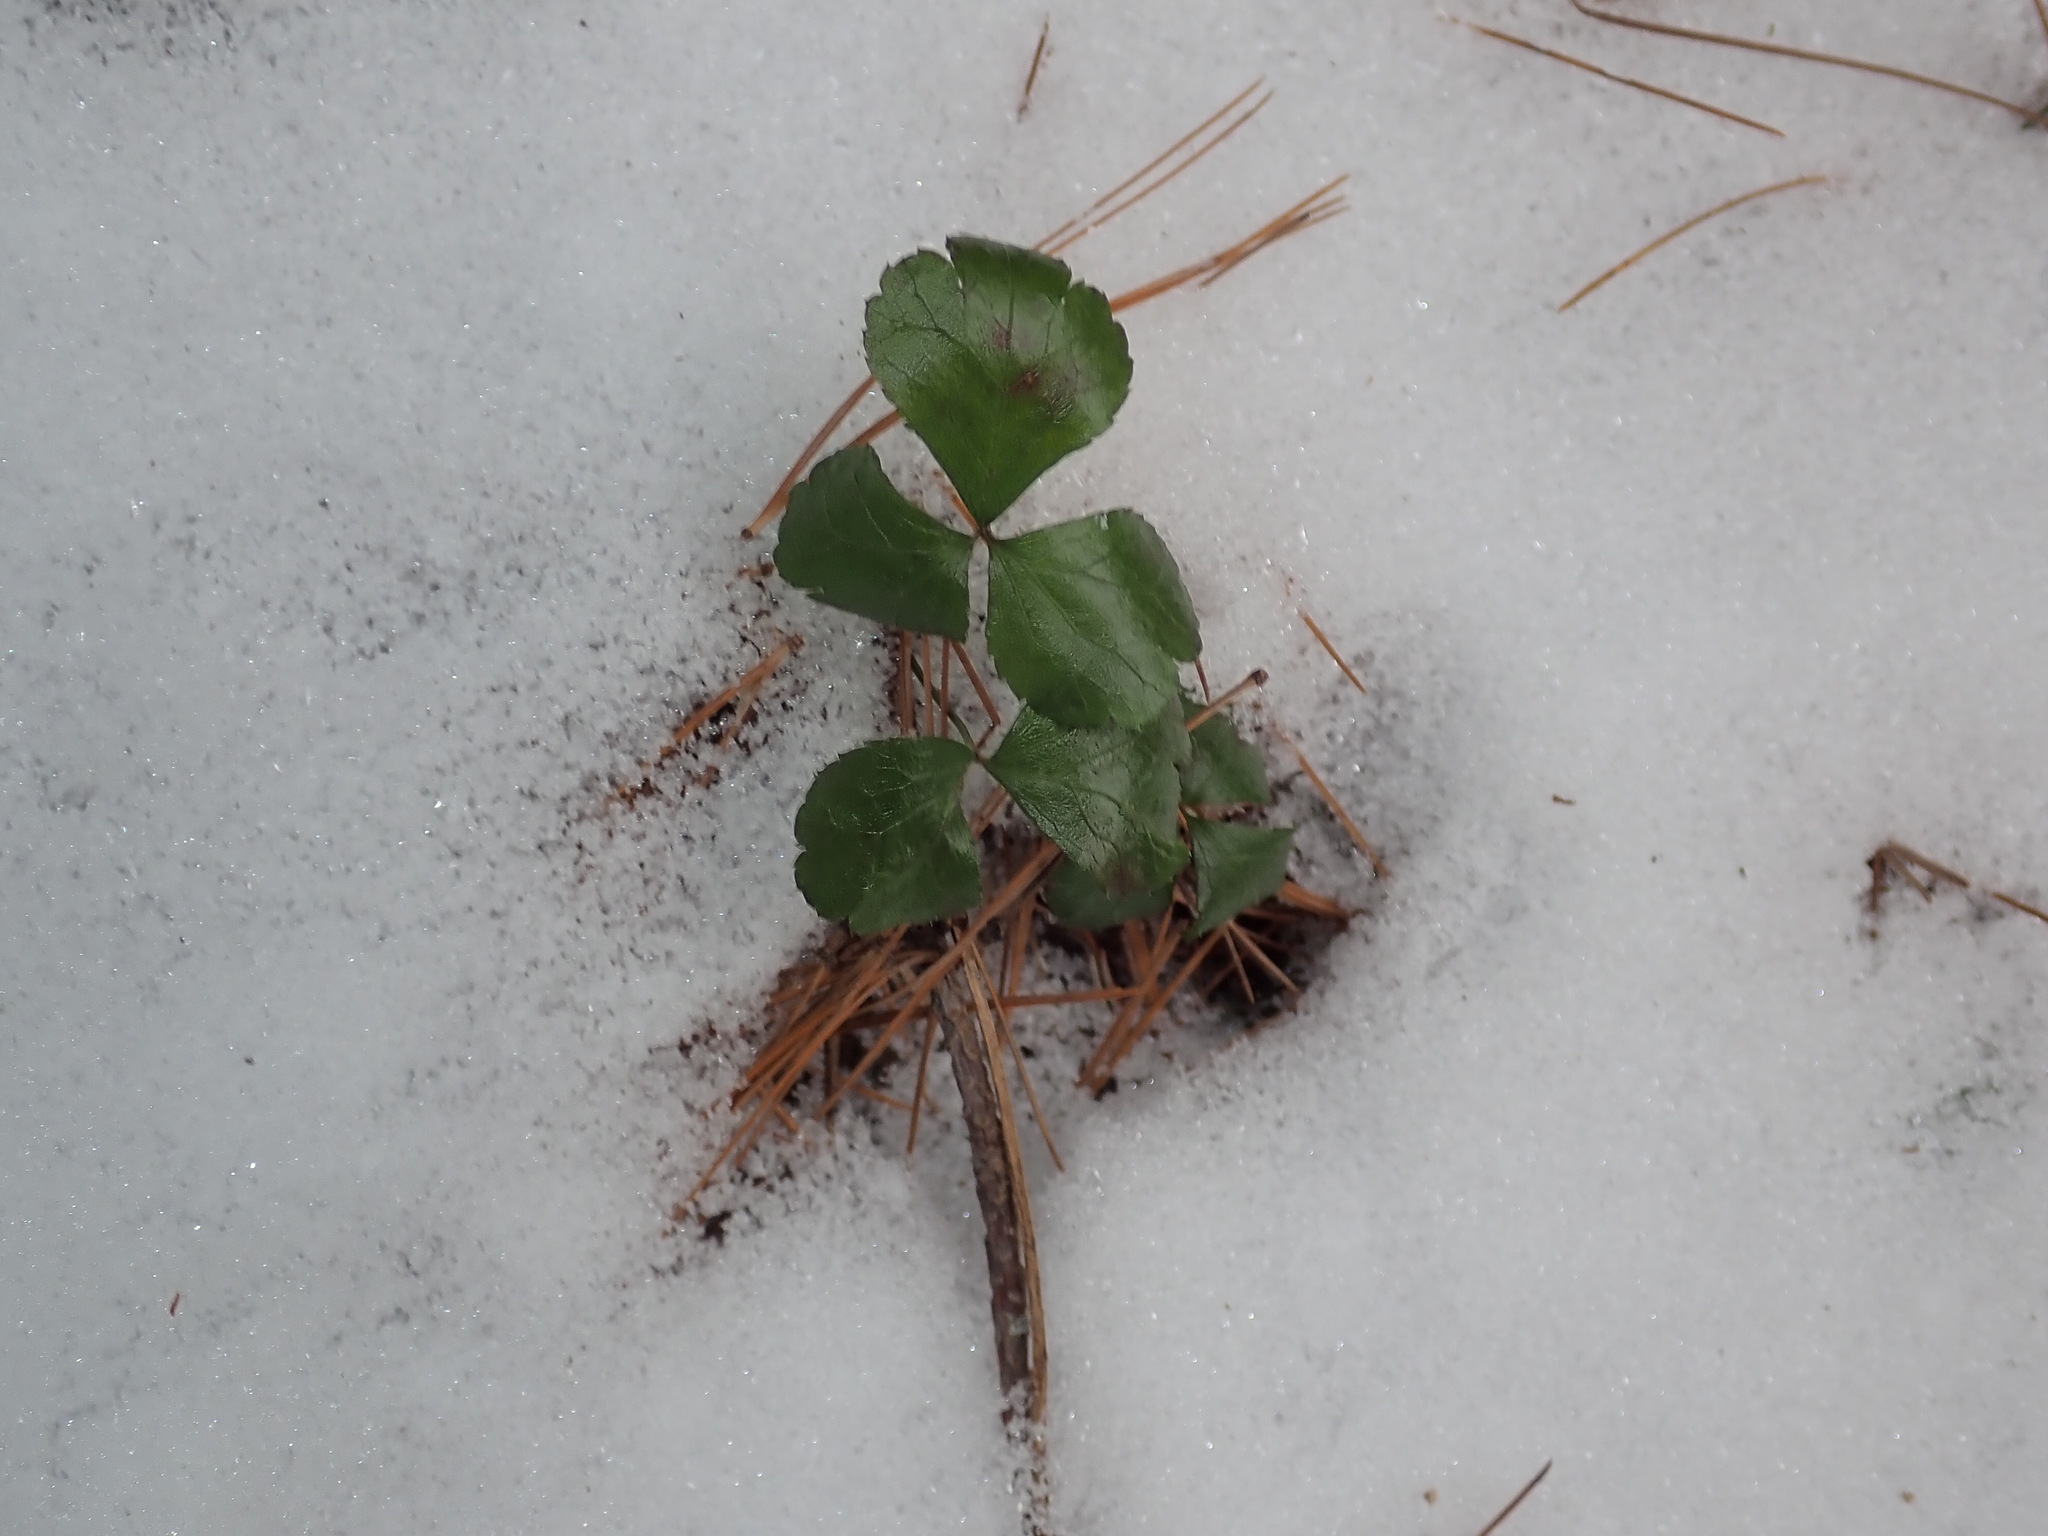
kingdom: Plantae
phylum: Tracheophyta
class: Magnoliopsida
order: Ranunculales
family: Ranunculaceae
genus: Coptis
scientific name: Coptis trifolia
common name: Canker-root
